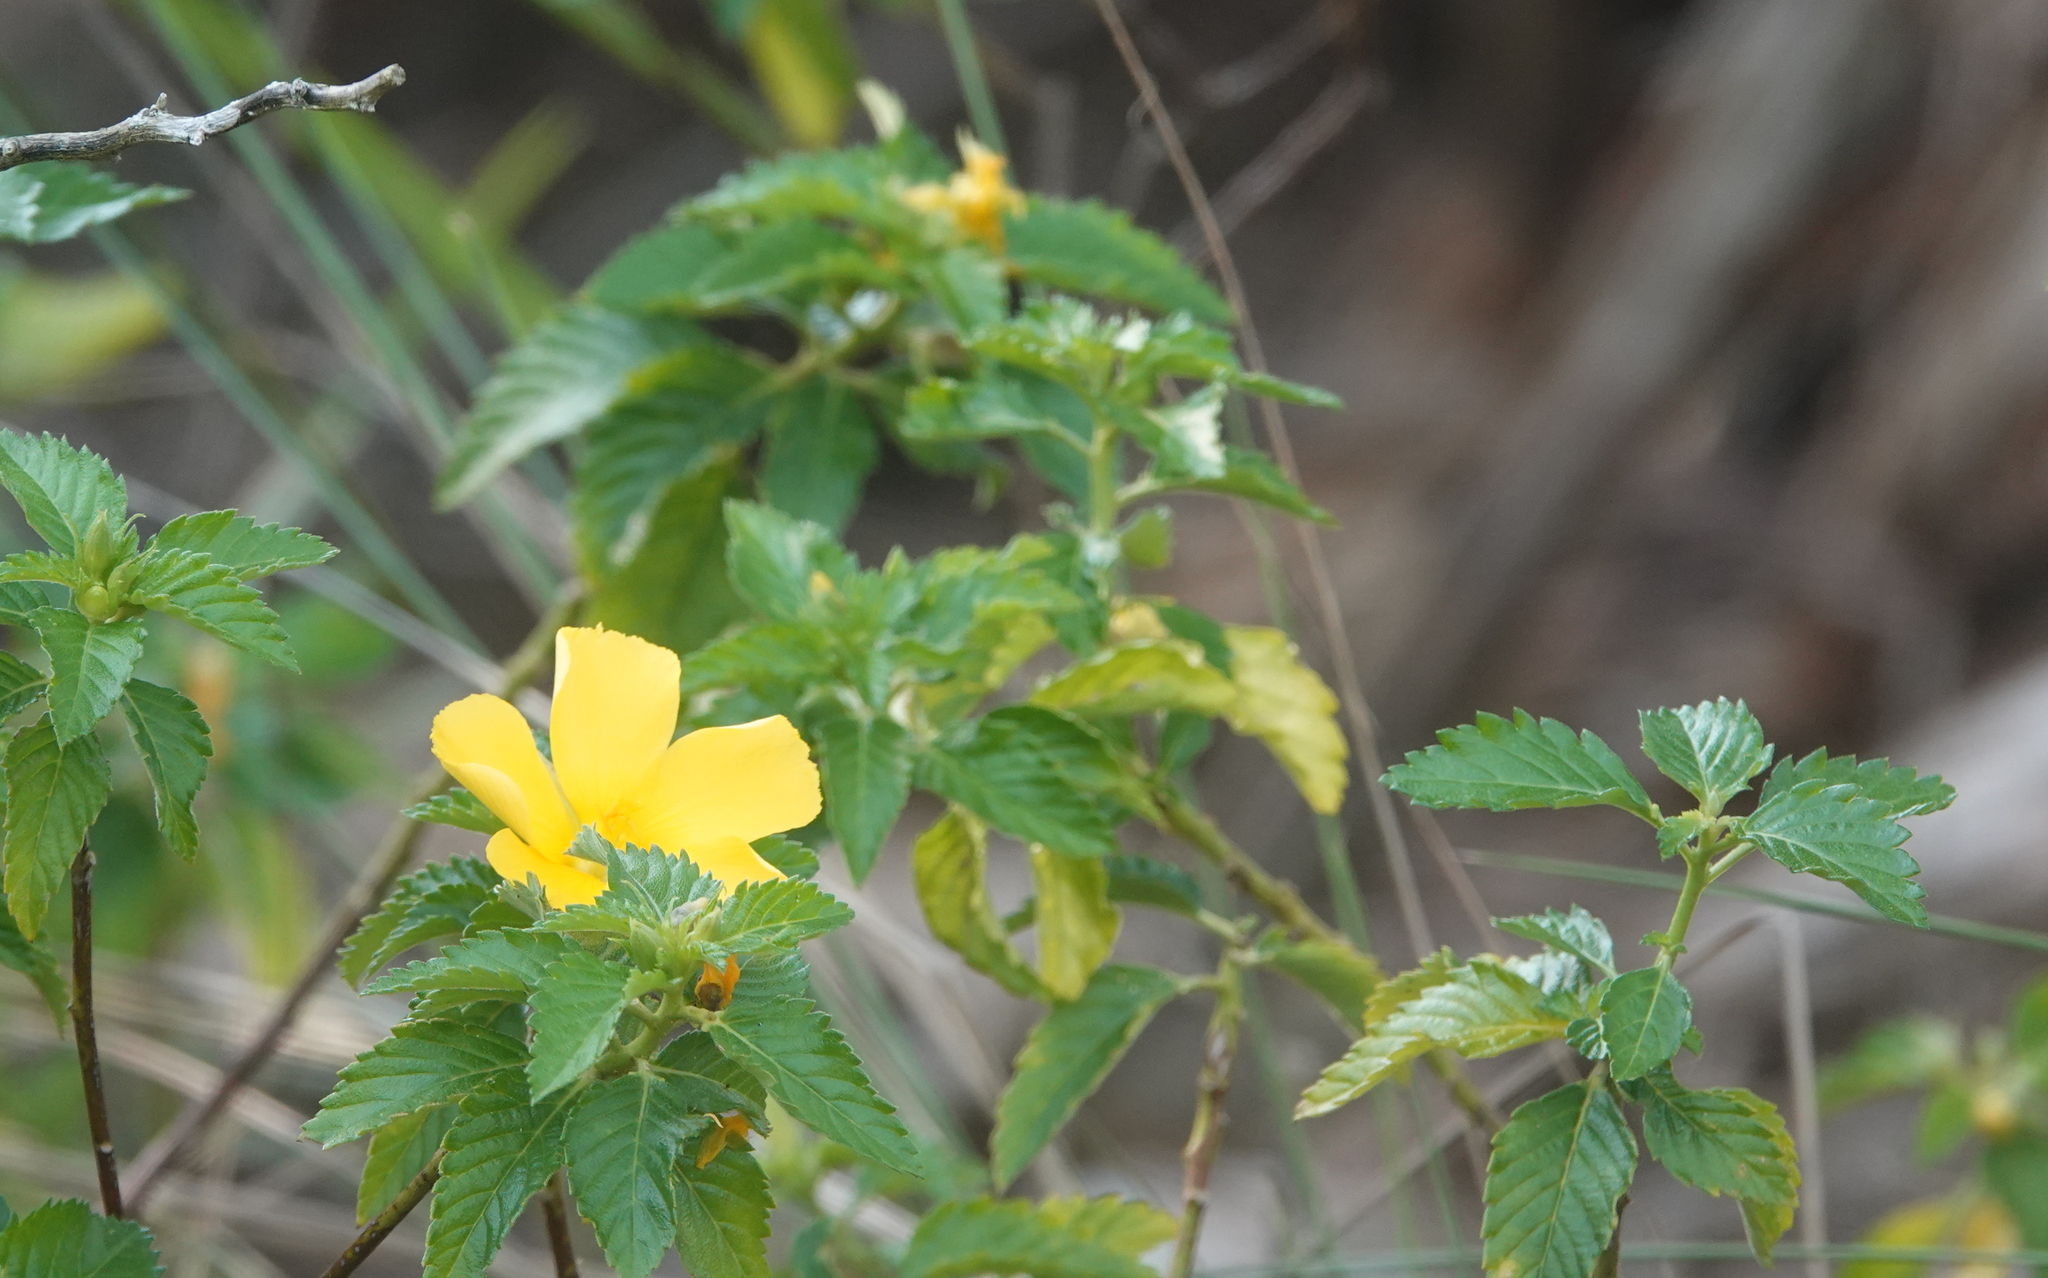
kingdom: Plantae
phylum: Tracheophyta
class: Magnoliopsida
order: Malpighiales
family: Turneraceae
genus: Turnera
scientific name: Turnera ulmifolia
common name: Ramgoat dashalong
